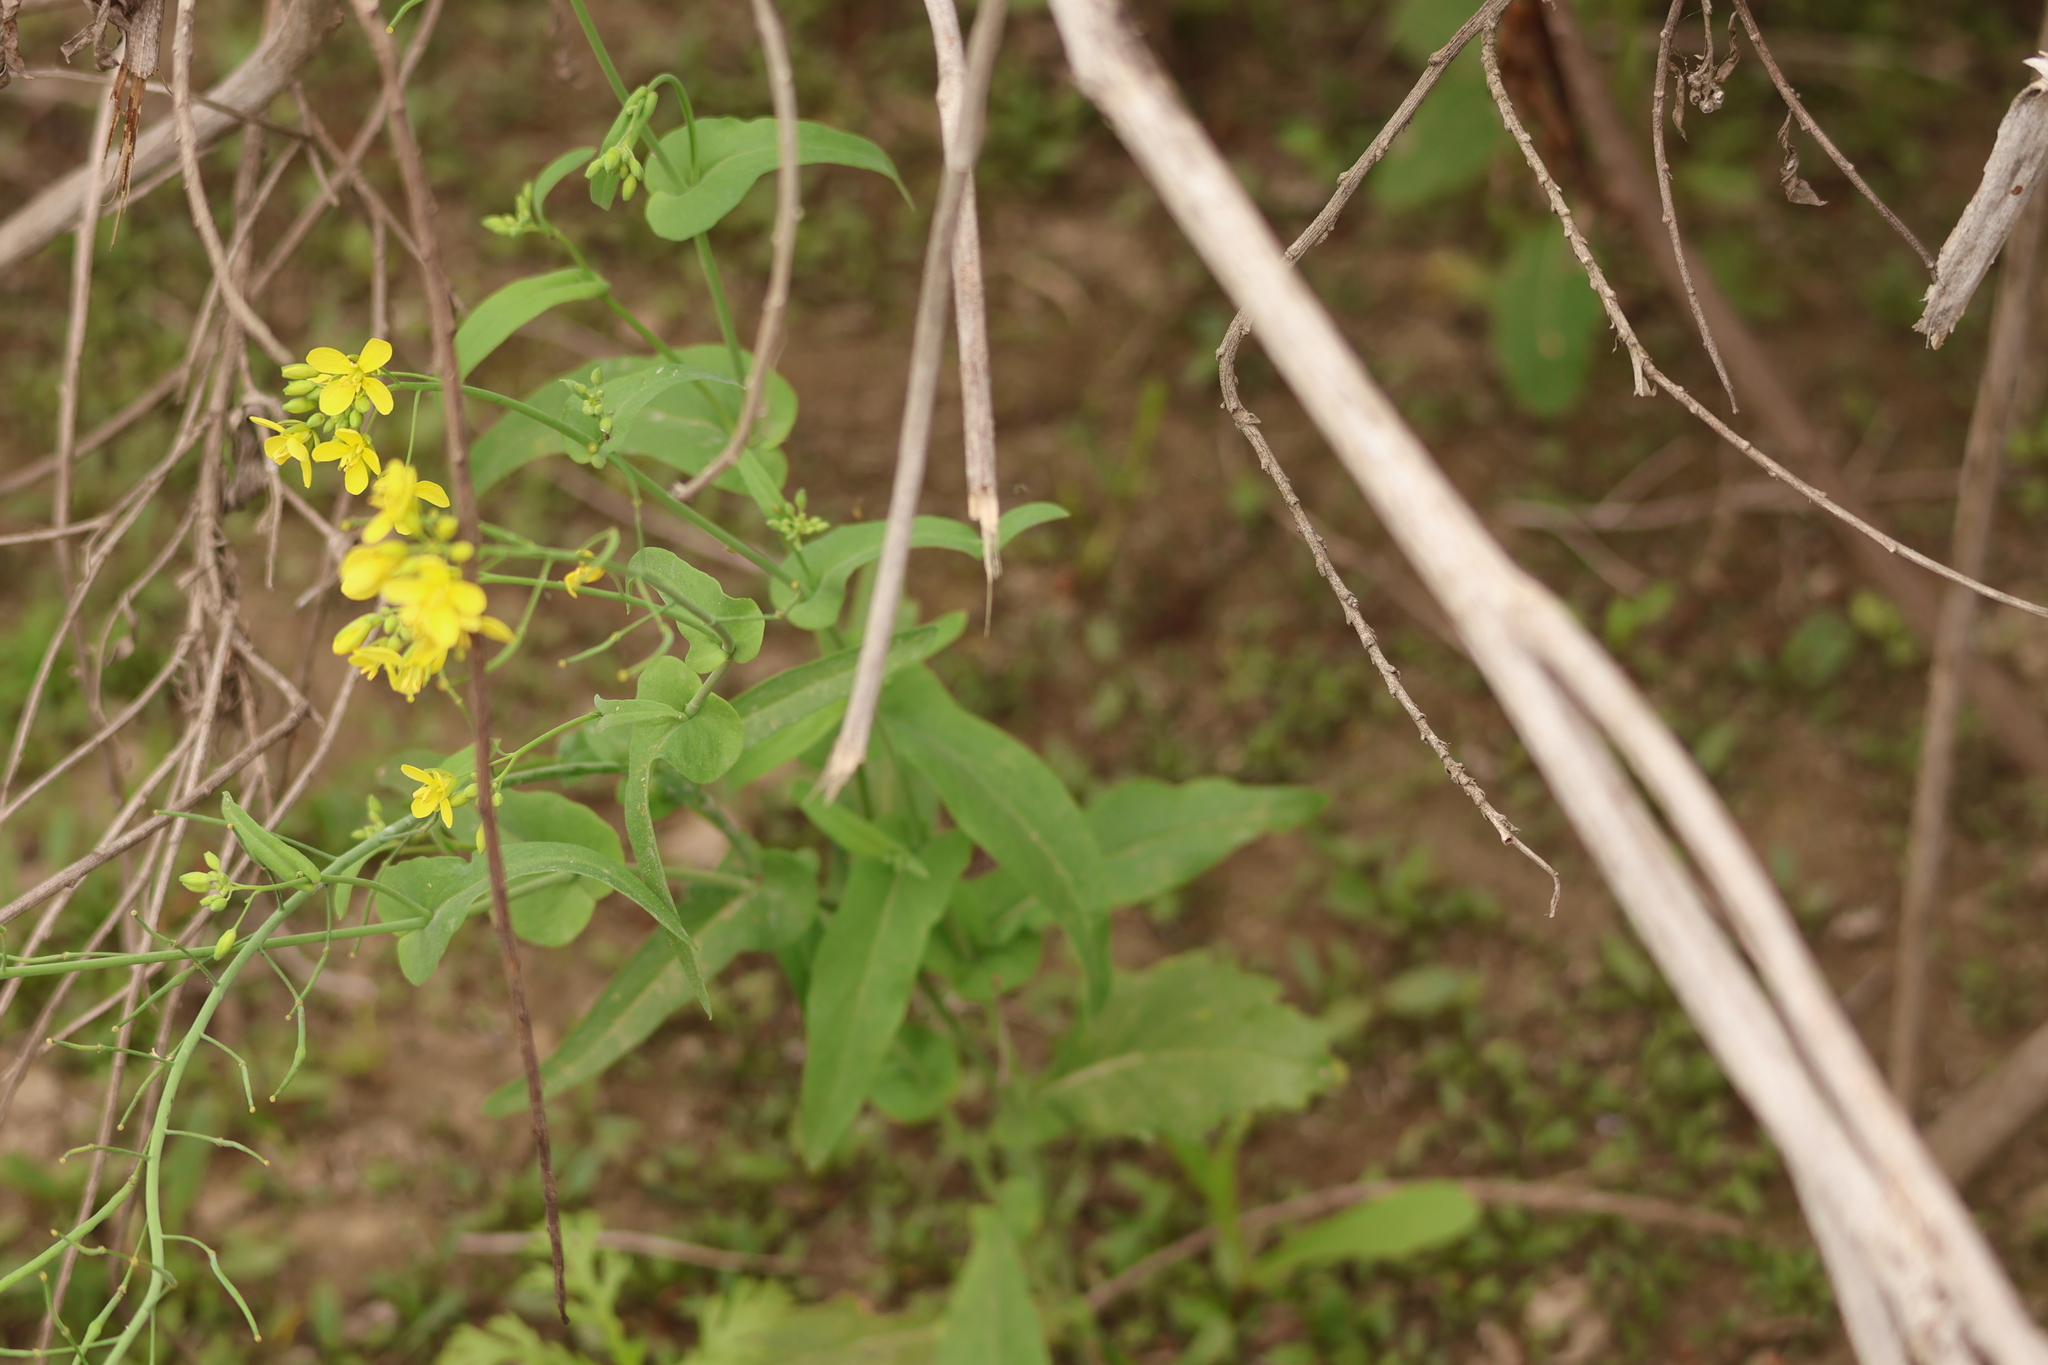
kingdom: Plantae
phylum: Tracheophyta
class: Magnoliopsida
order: Brassicales
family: Brassicaceae
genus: Brassica
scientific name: Brassica rapa
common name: Field mustard
